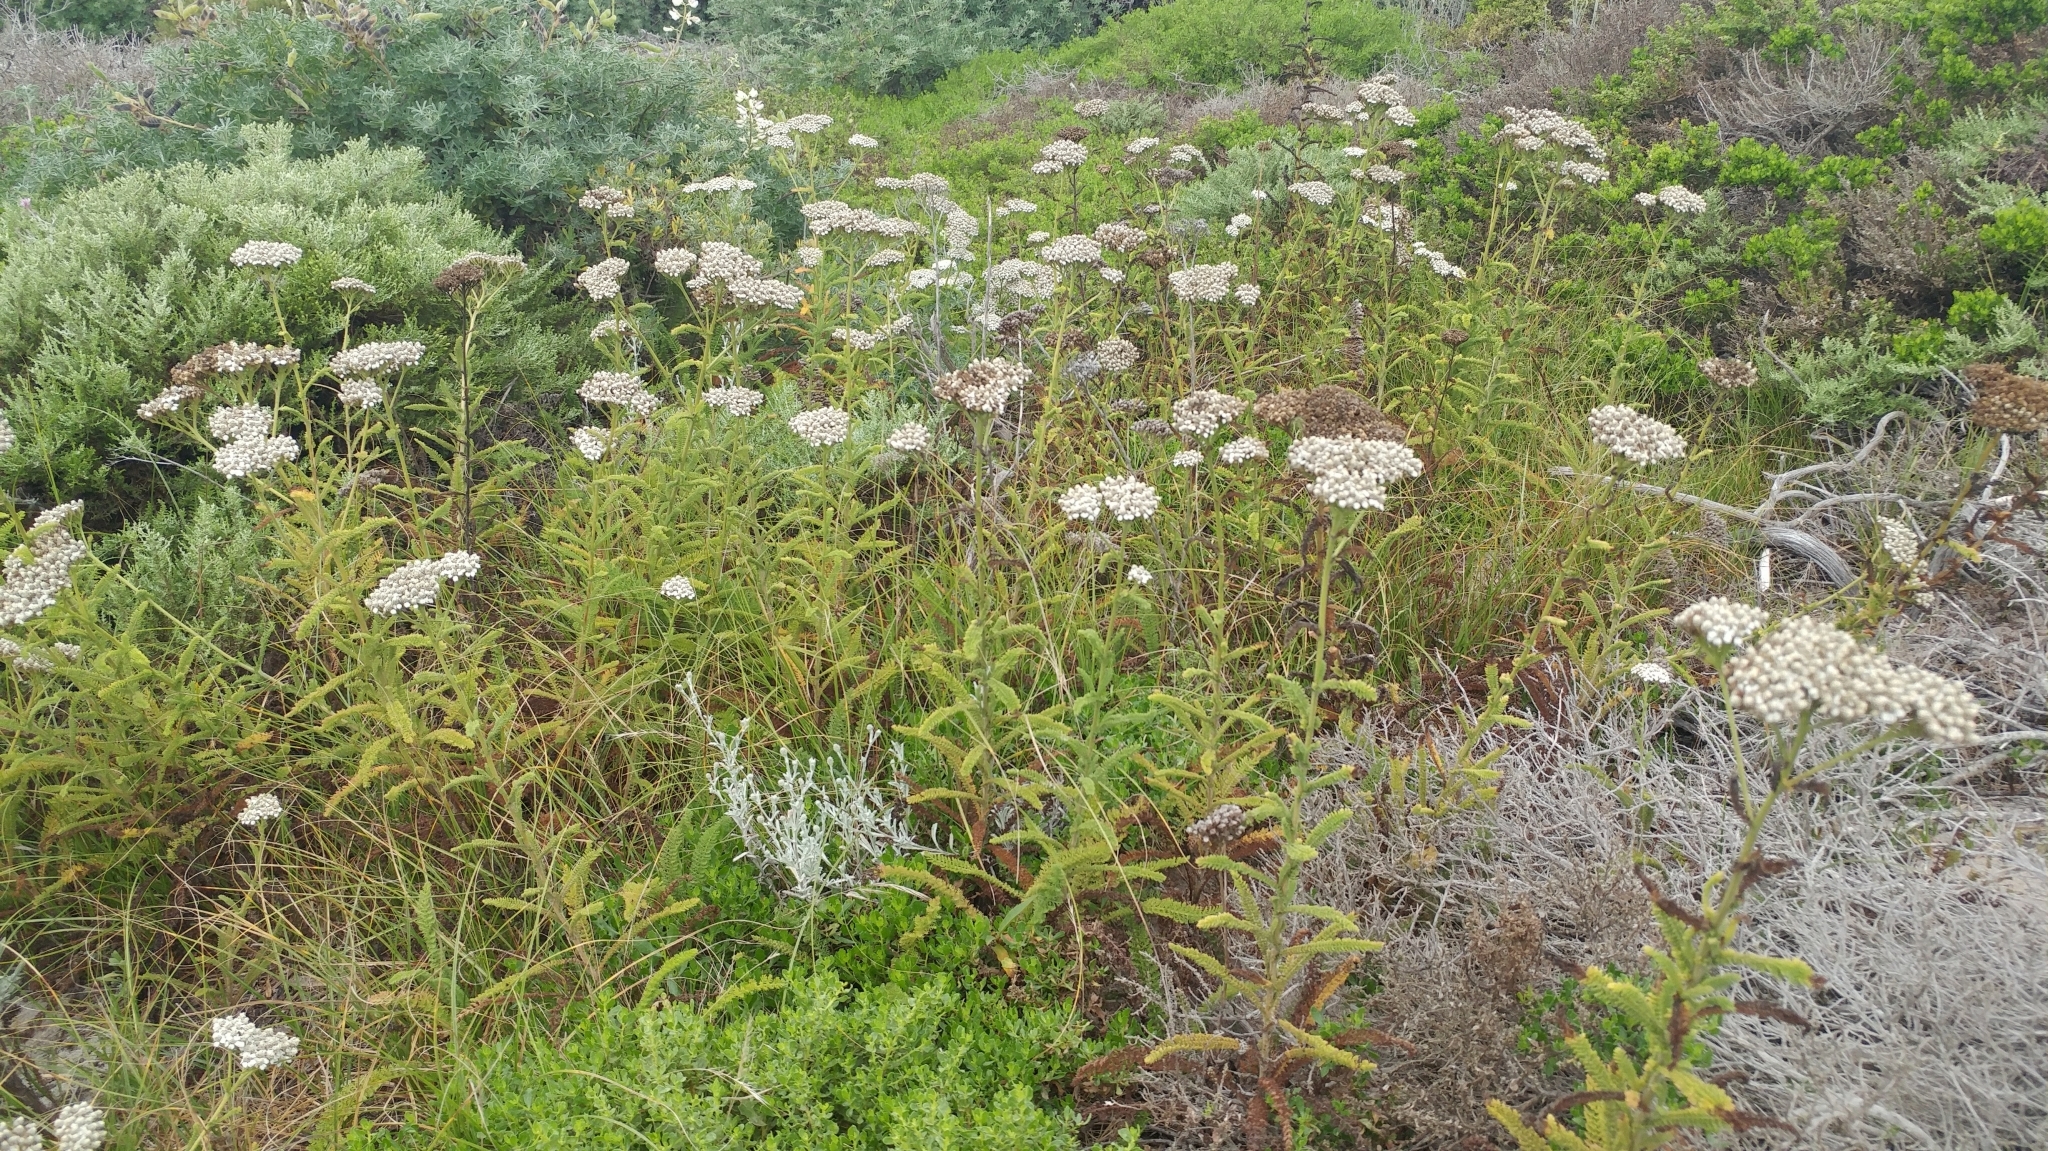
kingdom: Plantae
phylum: Tracheophyta
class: Magnoliopsida
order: Asterales
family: Asteraceae
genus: Achillea
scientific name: Achillea millefolium
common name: Yarrow
